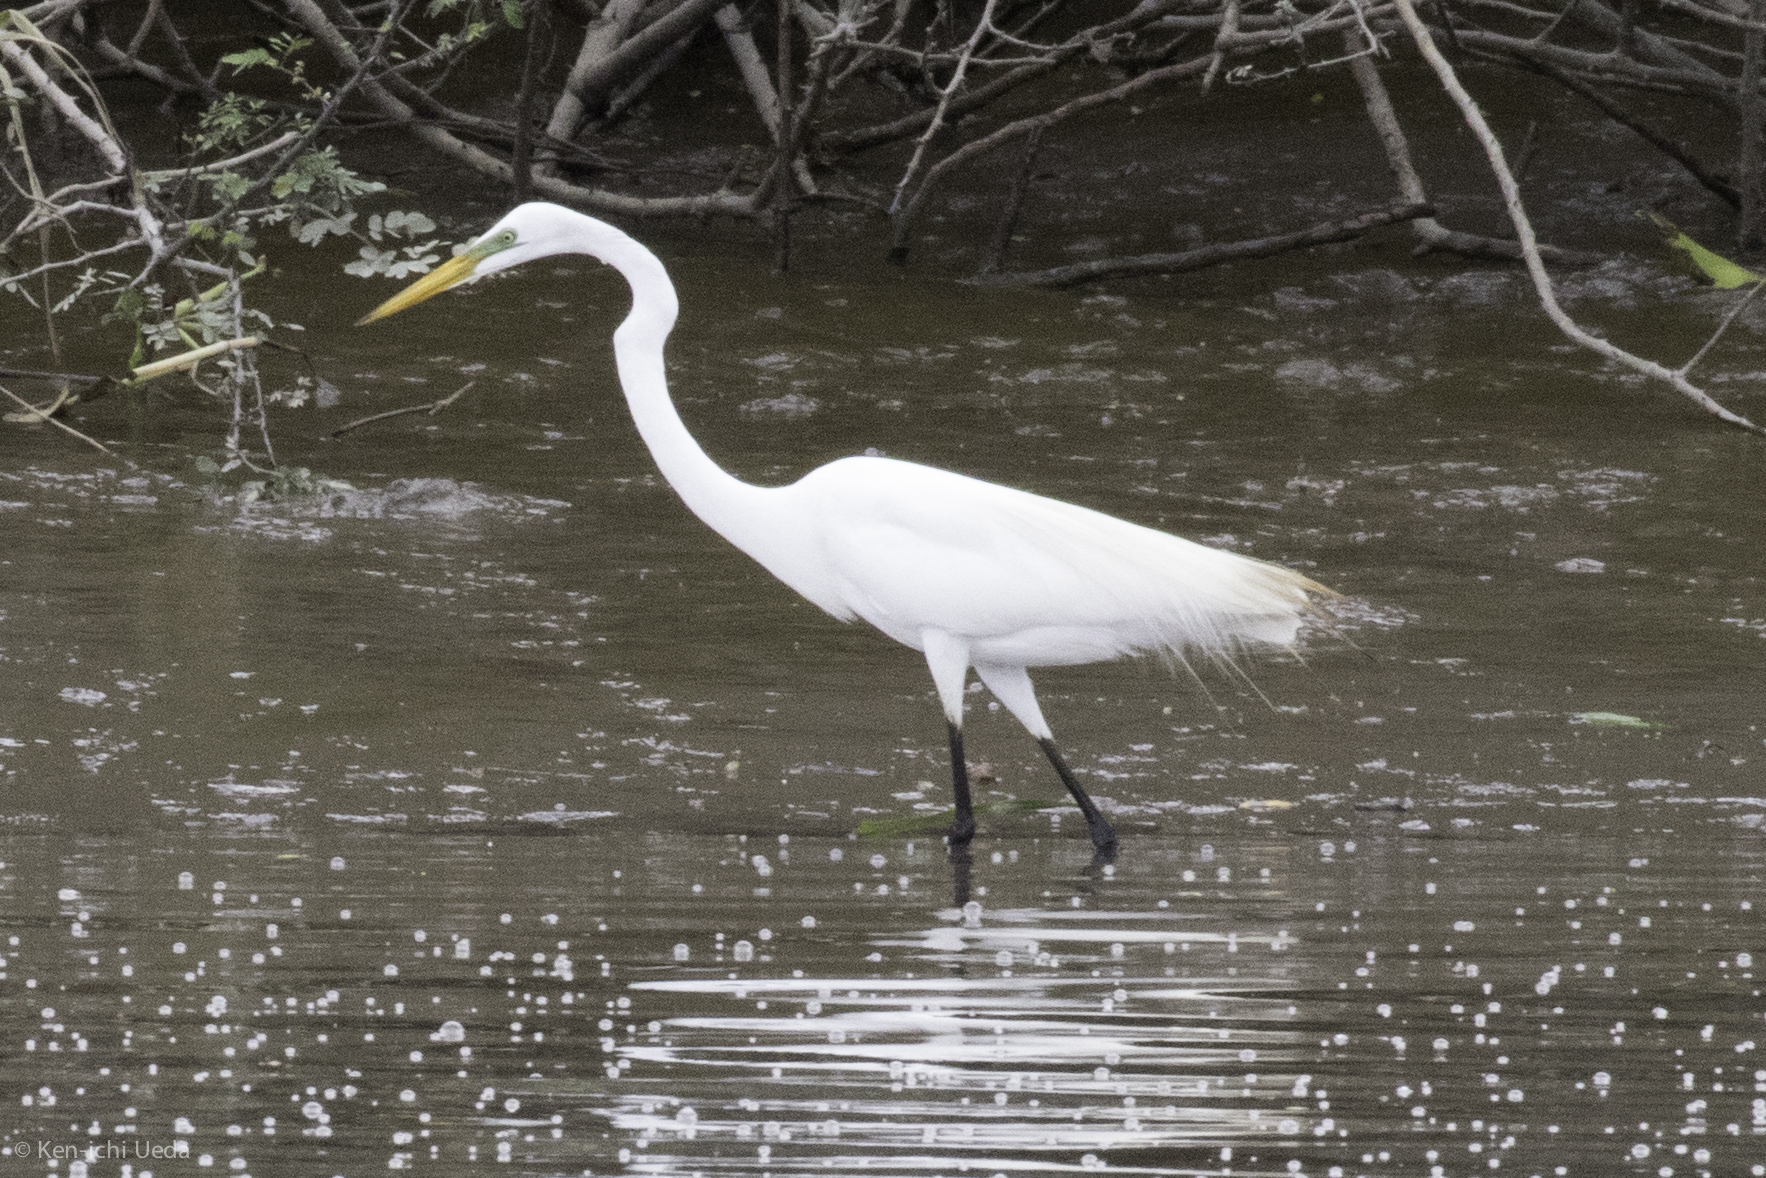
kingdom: Animalia
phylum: Chordata
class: Aves
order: Pelecaniformes
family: Ardeidae
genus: Ardea
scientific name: Ardea alba
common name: Great egret
